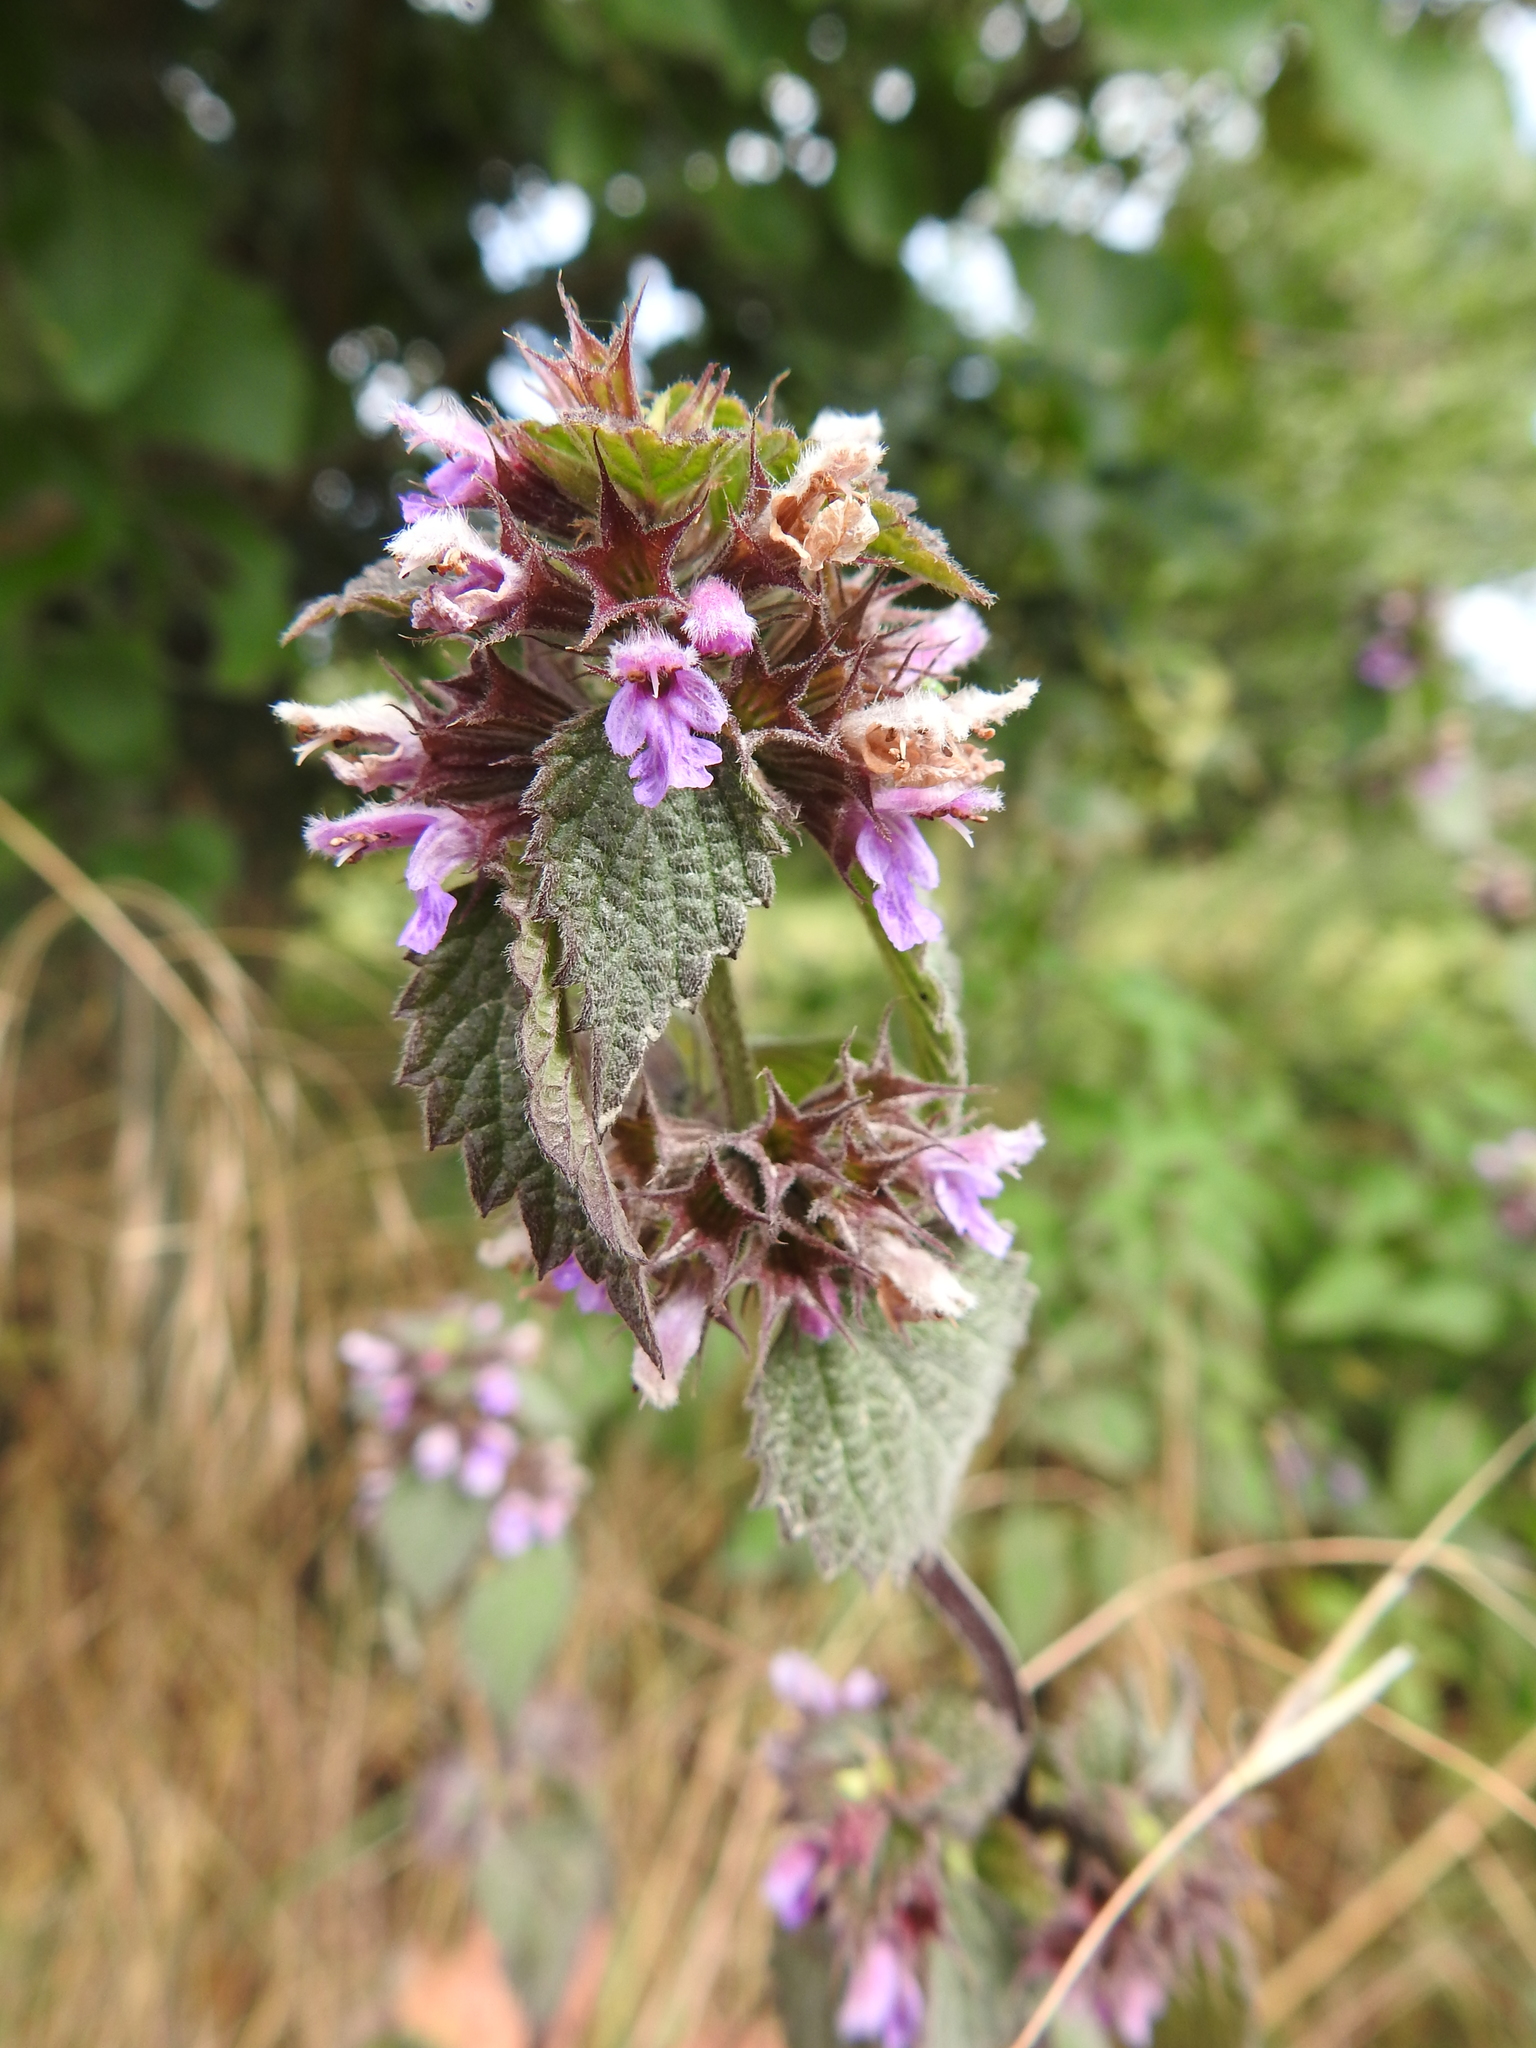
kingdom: Plantae
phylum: Tracheophyta
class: Magnoliopsida
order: Lamiales
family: Lamiaceae
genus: Ballota
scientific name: Ballota nigra
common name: Black horehound
